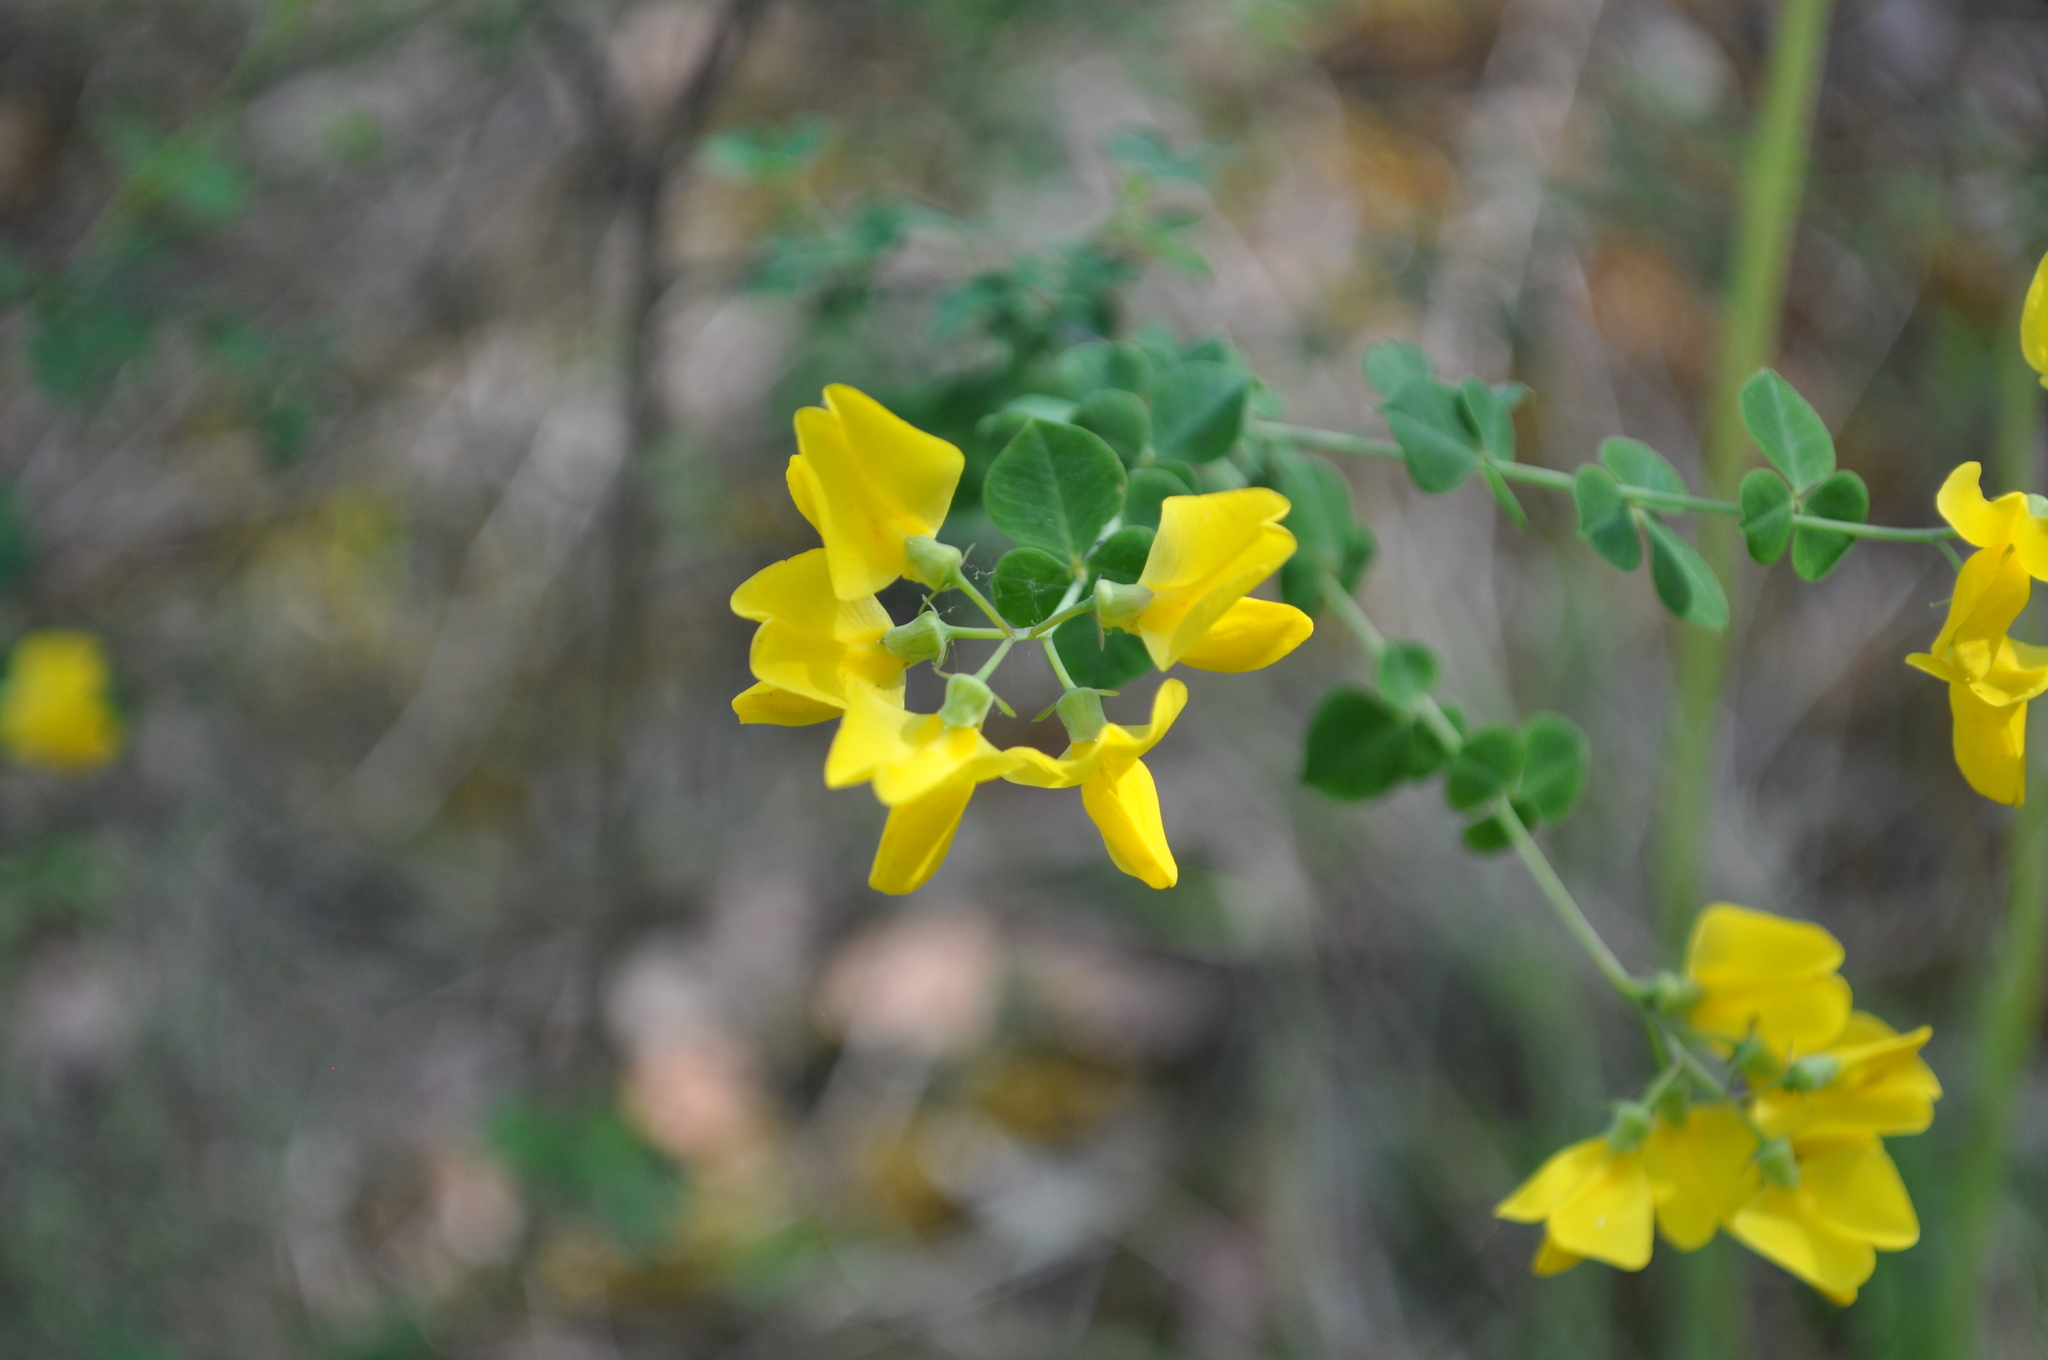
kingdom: Plantae
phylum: Tracheophyta
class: Magnoliopsida
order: Fabales
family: Fabaceae
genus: Cytisophyllum
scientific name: Cytisophyllum sessilifolium
